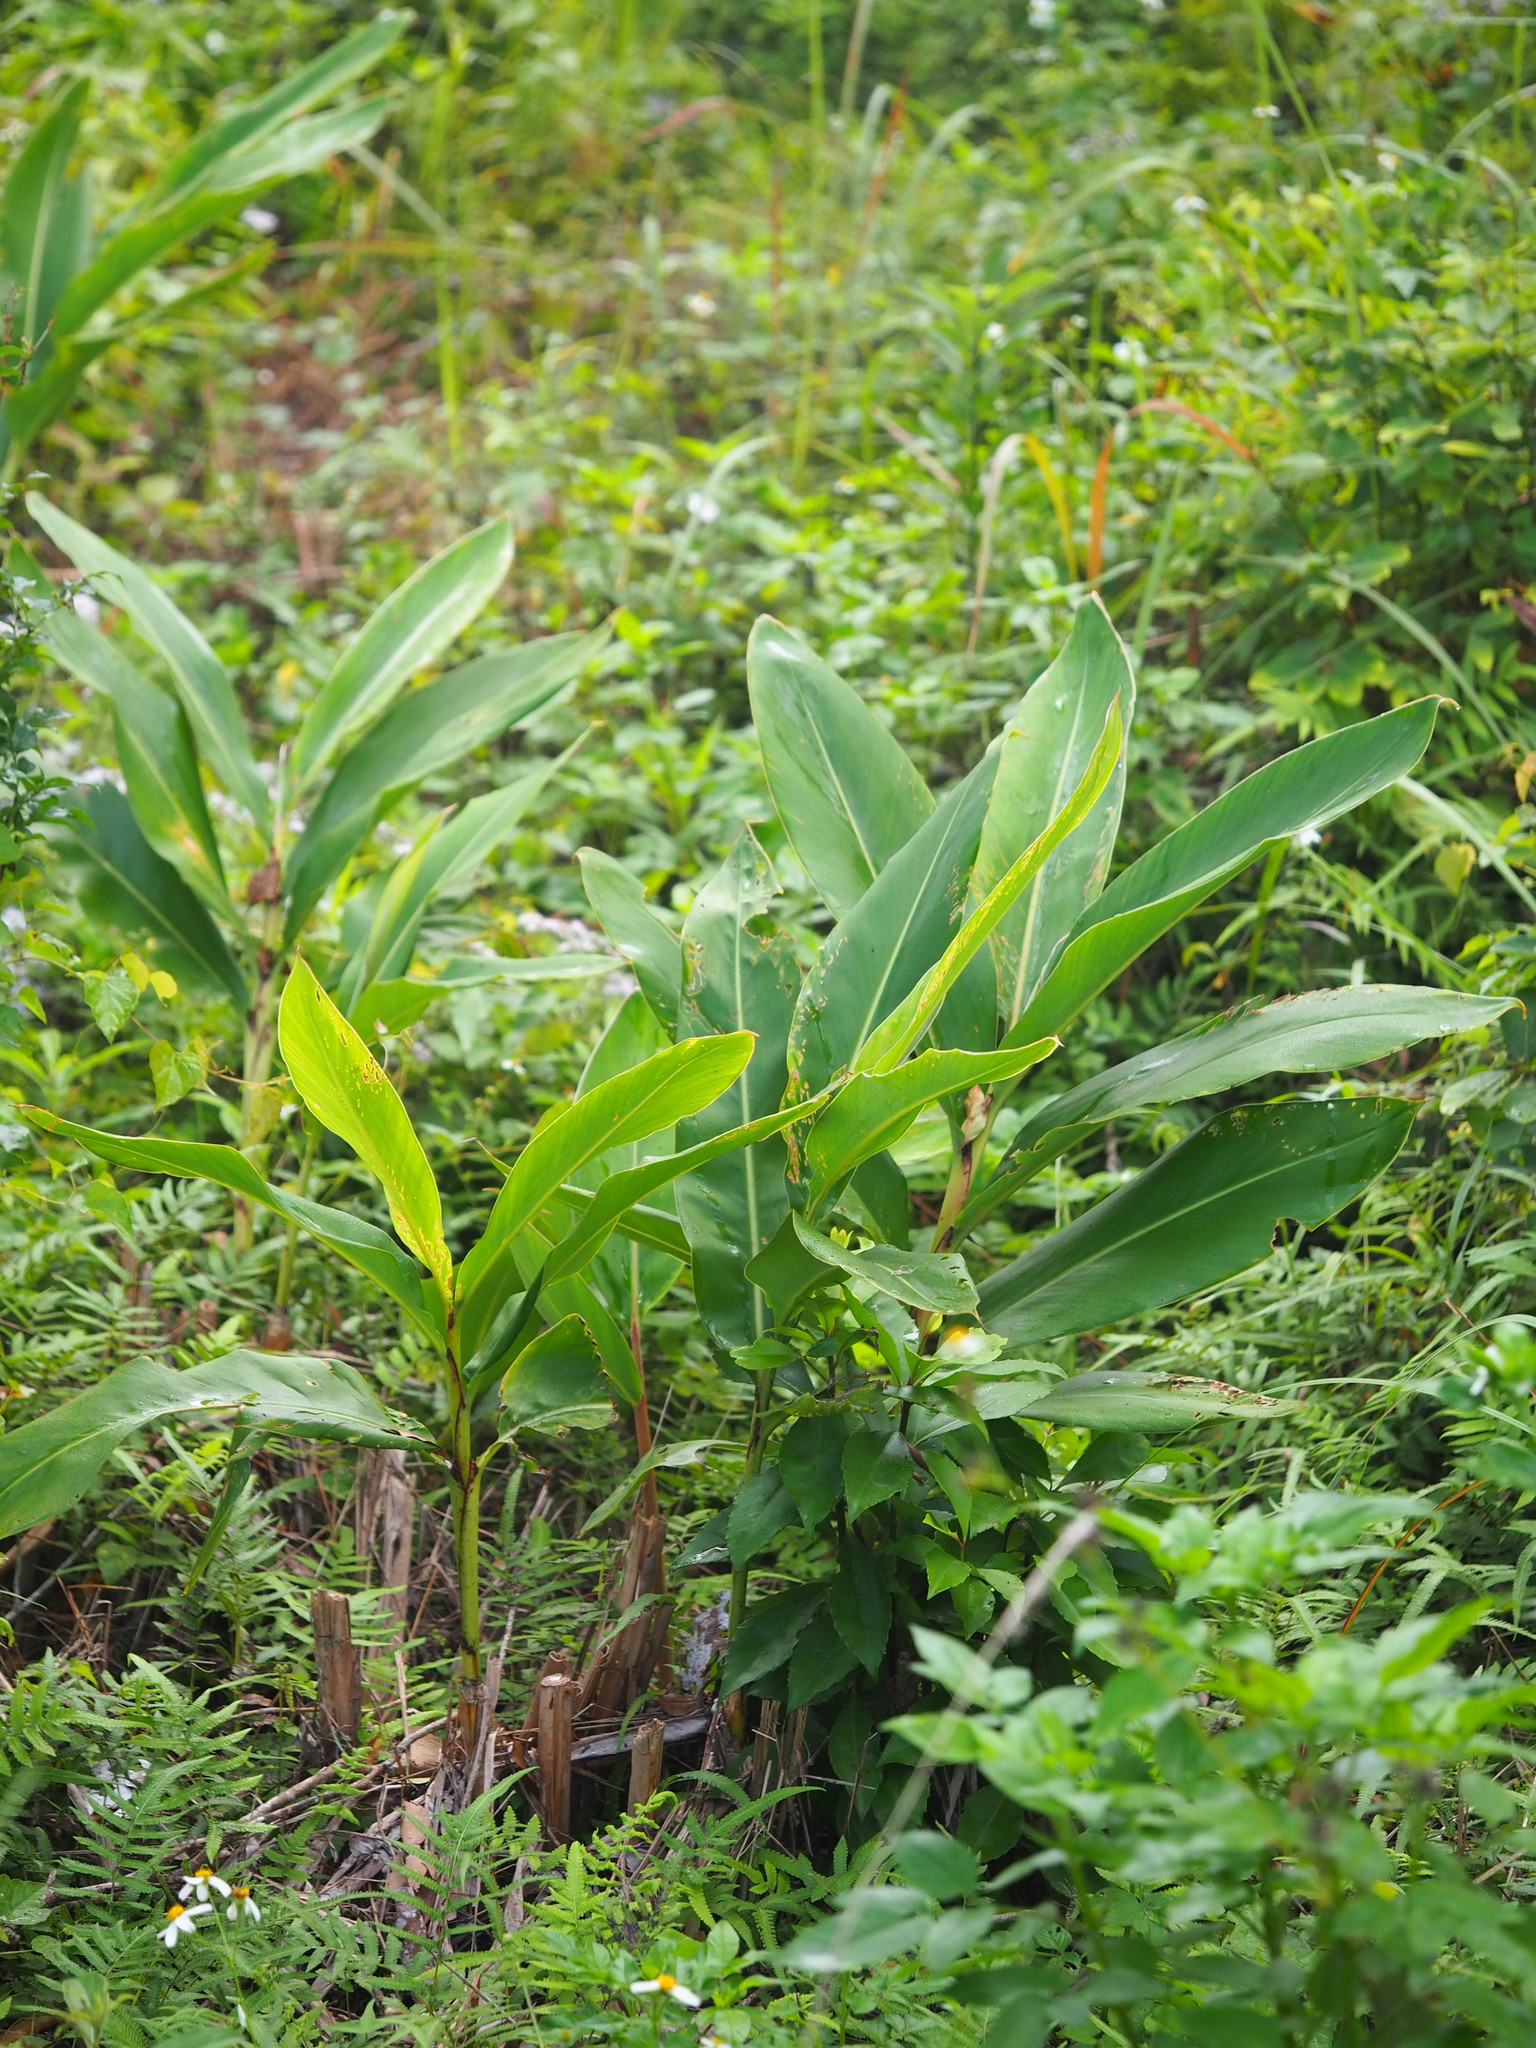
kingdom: Plantae
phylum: Tracheophyta
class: Liliopsida
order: Zingiberales
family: Zingiberaceae
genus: Alpinia
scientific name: Alpinia zerumbet
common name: Shellplant
